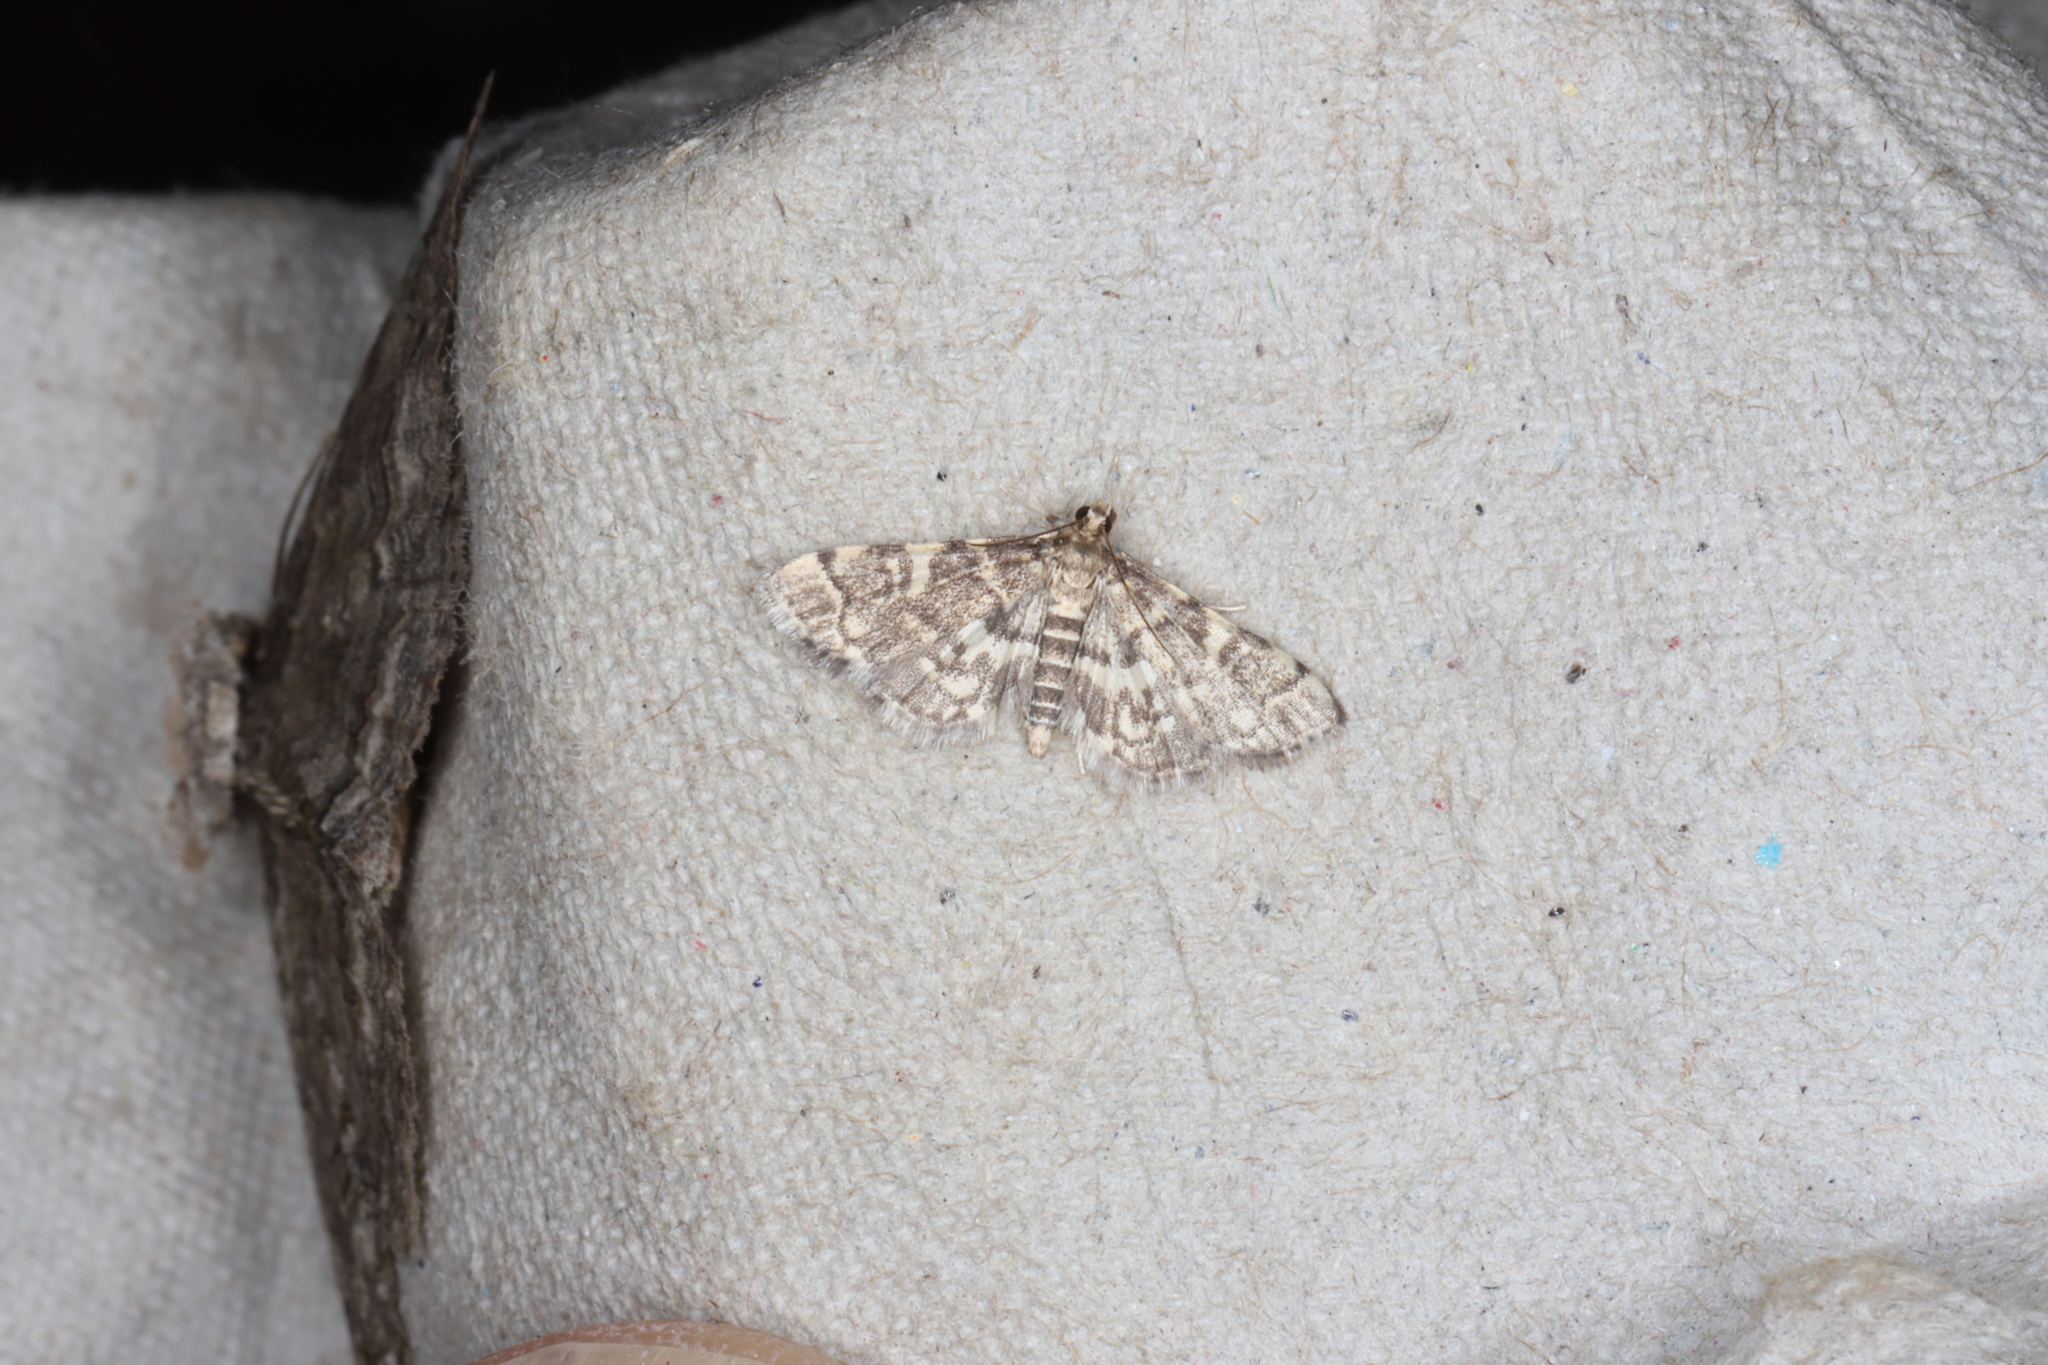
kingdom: Animalia
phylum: Arthropoda
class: Insecta
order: Lepidoptera
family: Crambidae
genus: Anageshna
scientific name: Anageshna primordialis
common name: Yellow-spotted webworm moth
